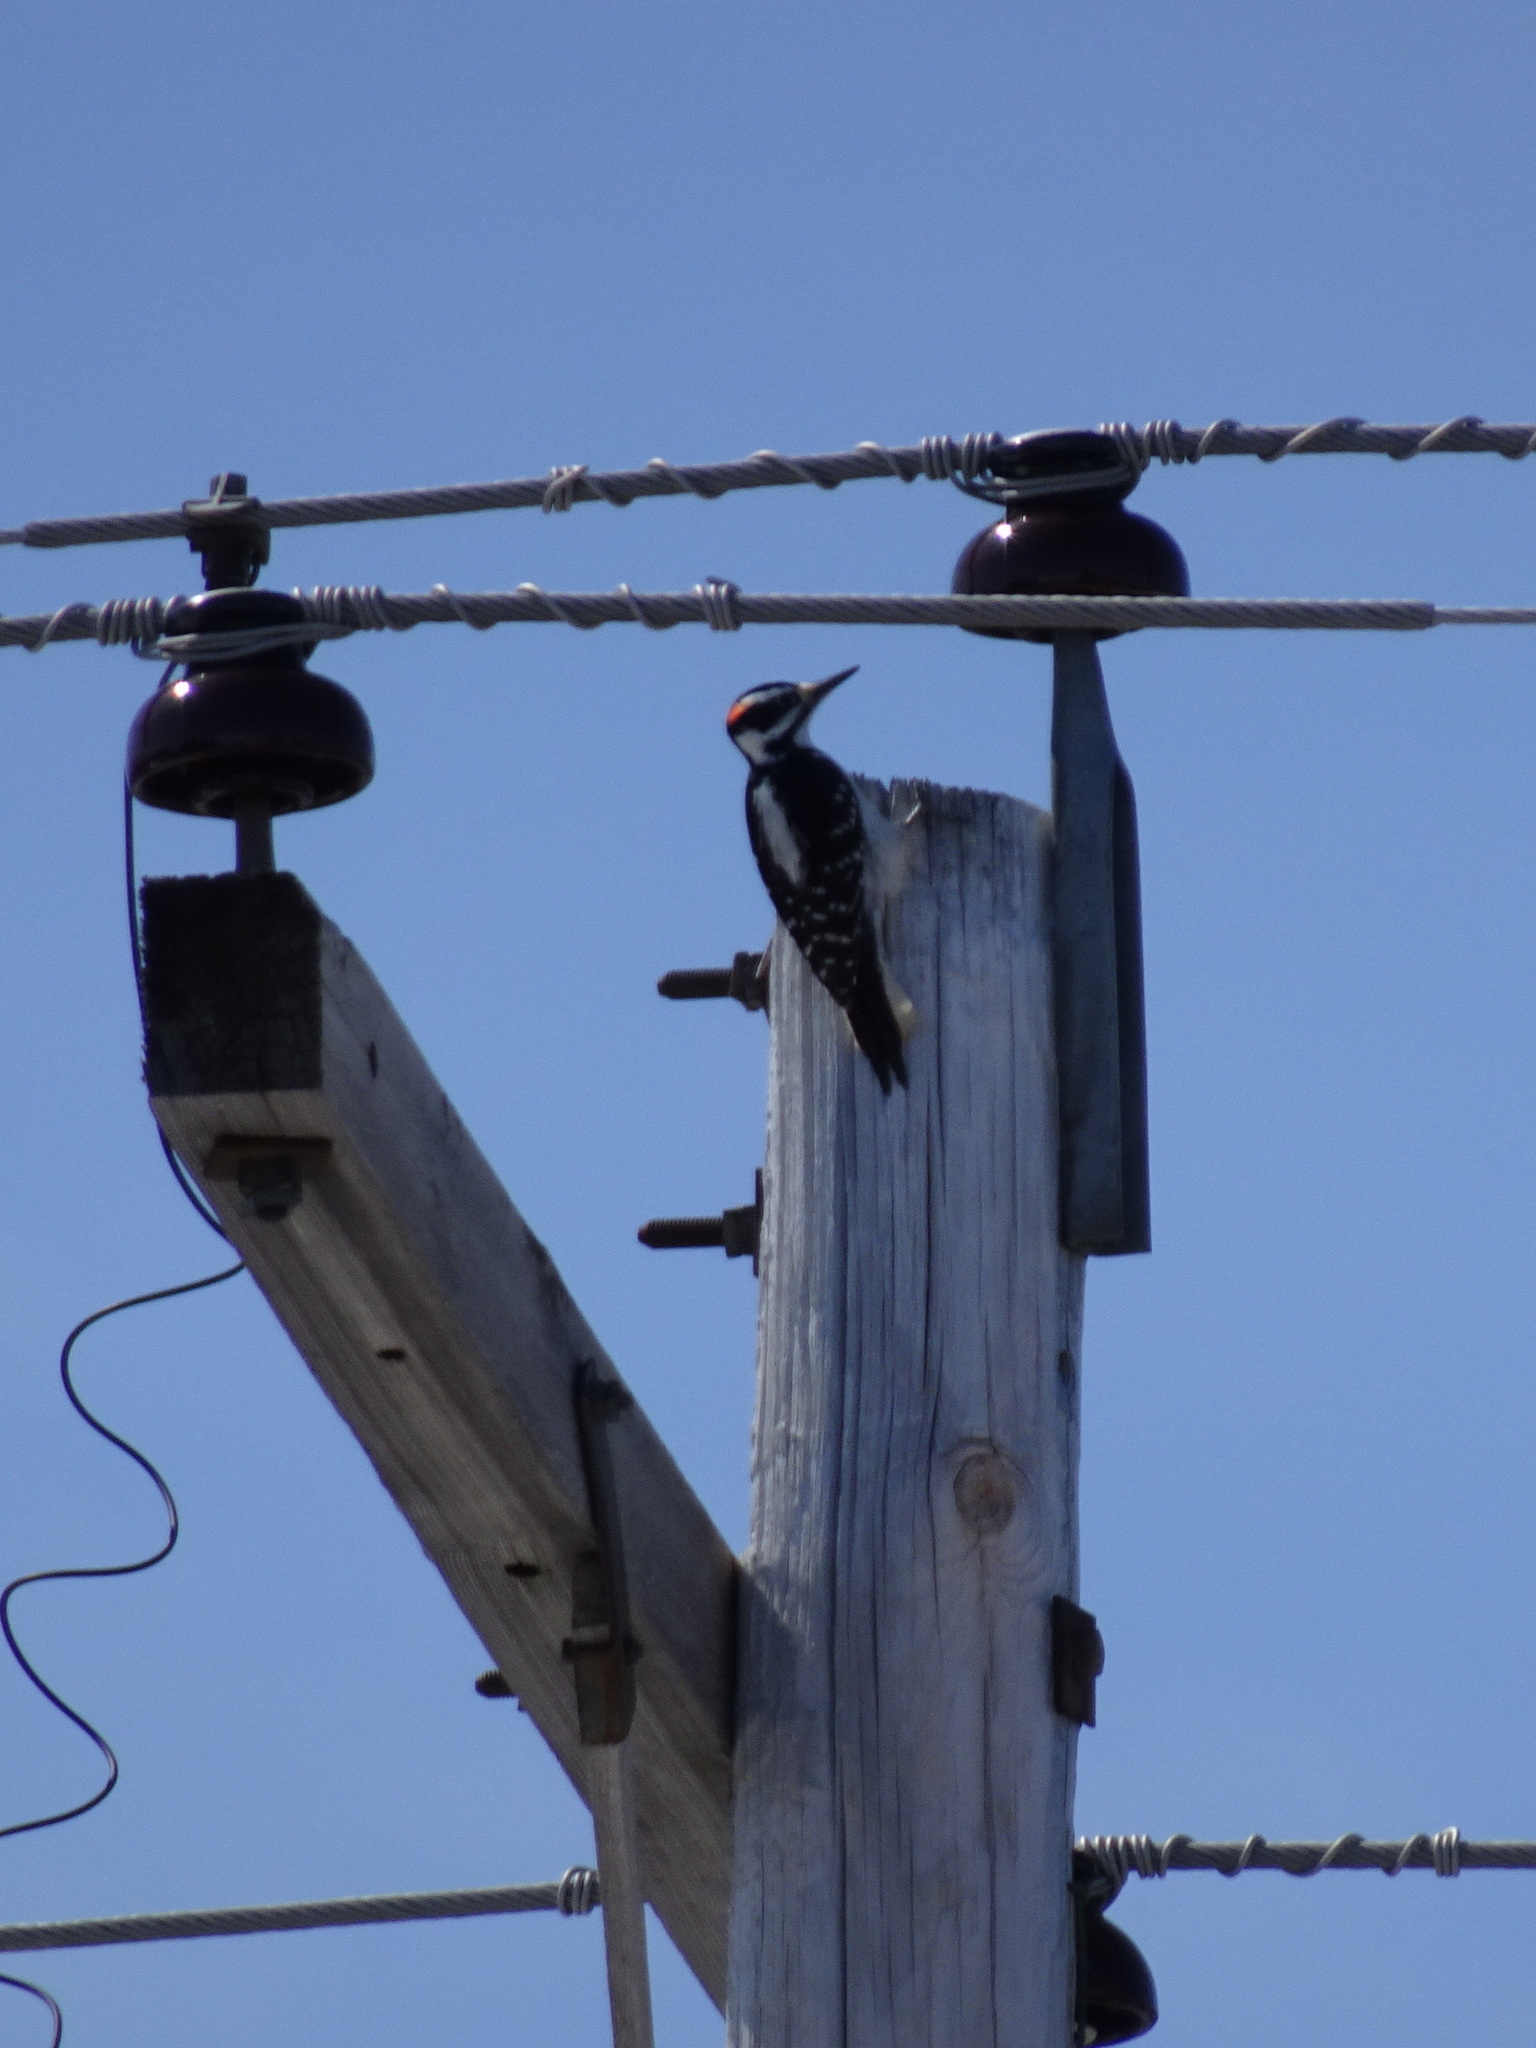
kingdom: Animalia
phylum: Chordata
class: Aves
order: Piciformes
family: Picidae
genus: Leuconotopicus
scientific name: Leuconotopicus villosus
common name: Hairy woodpecker
